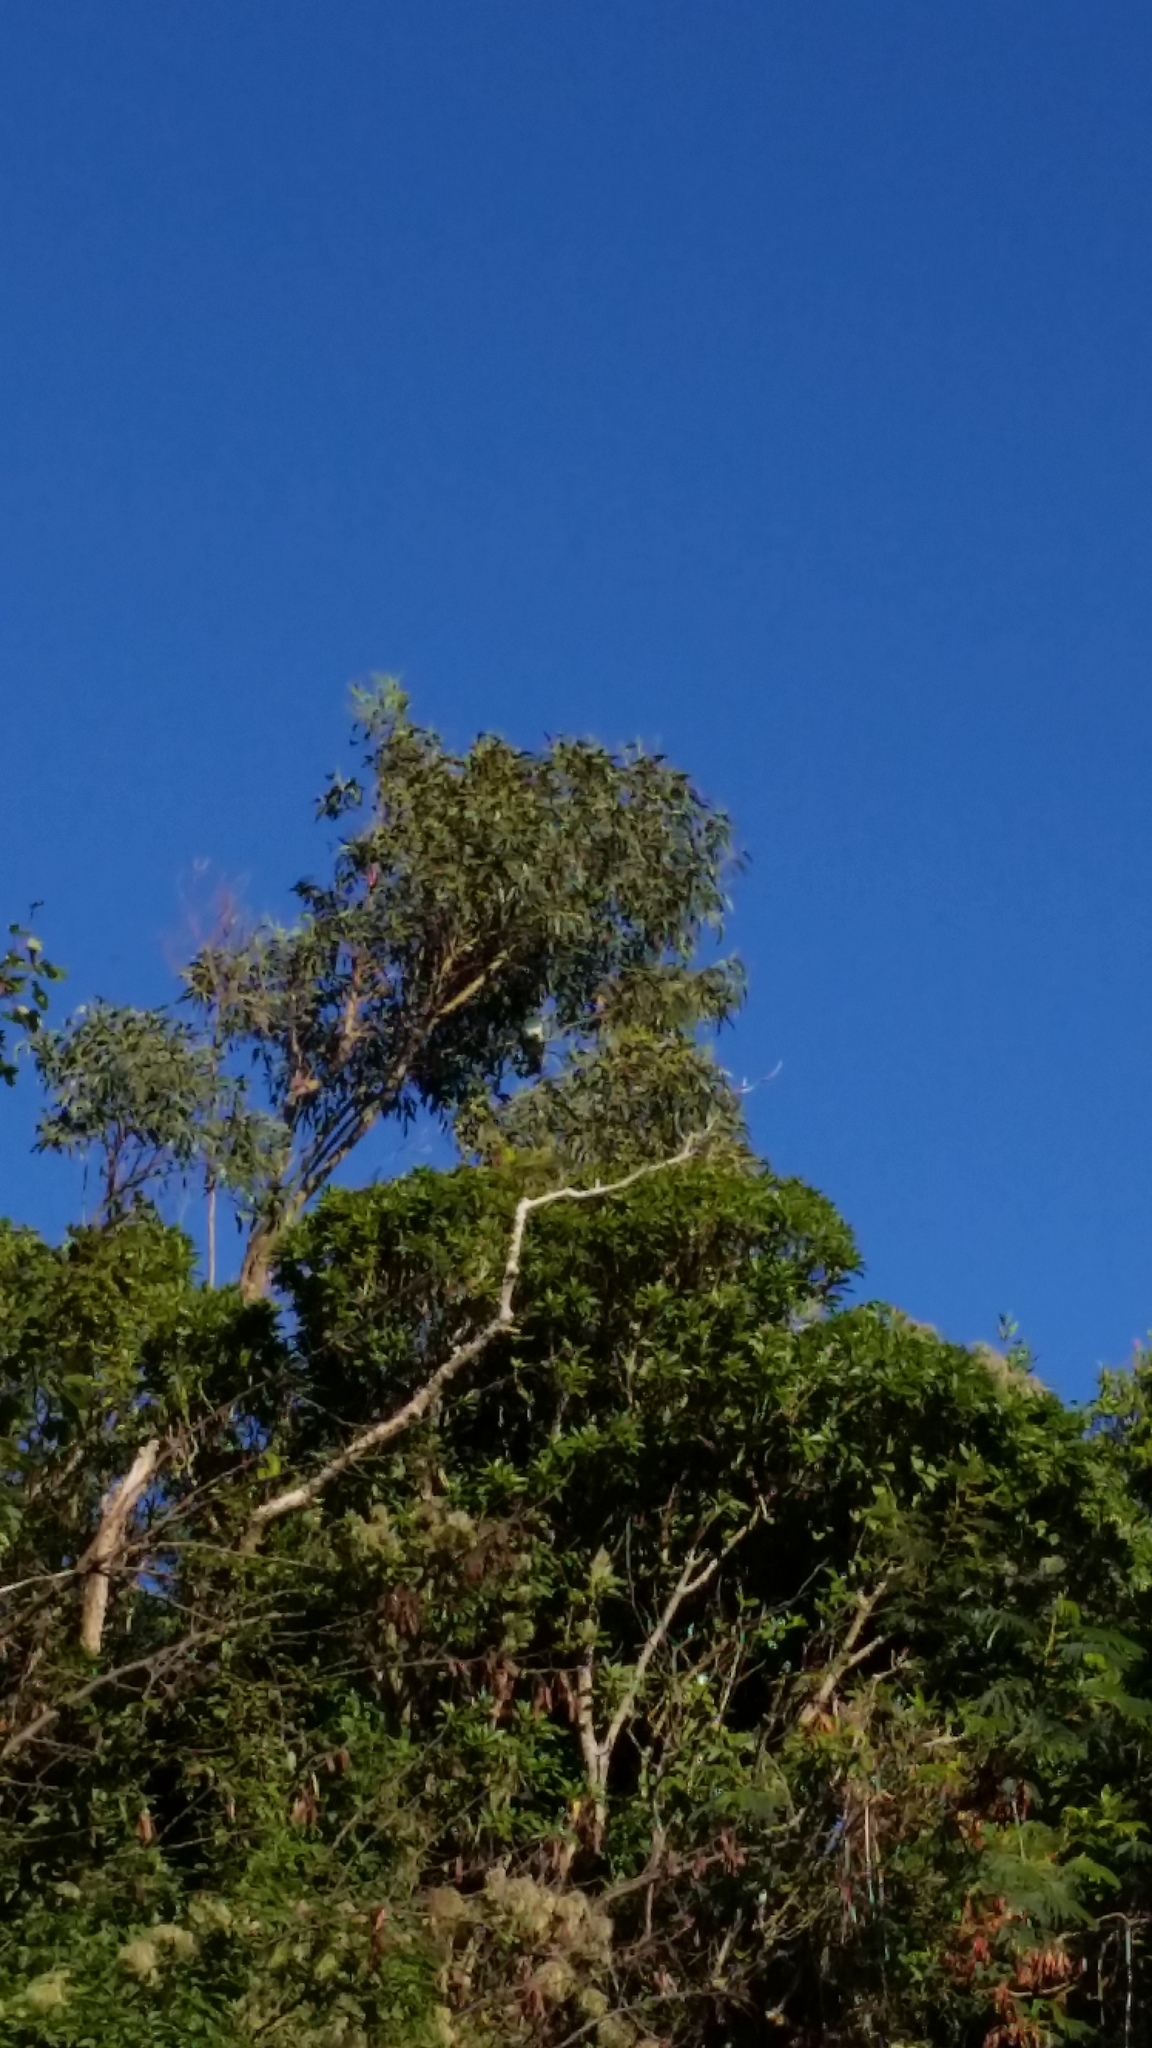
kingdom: Animalia
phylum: Chordata
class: Aves
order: Columbiformes
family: Columbidae
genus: Hemiphaga
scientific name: Hemiphaga novaeseelandiae
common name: New zealand pigeon
